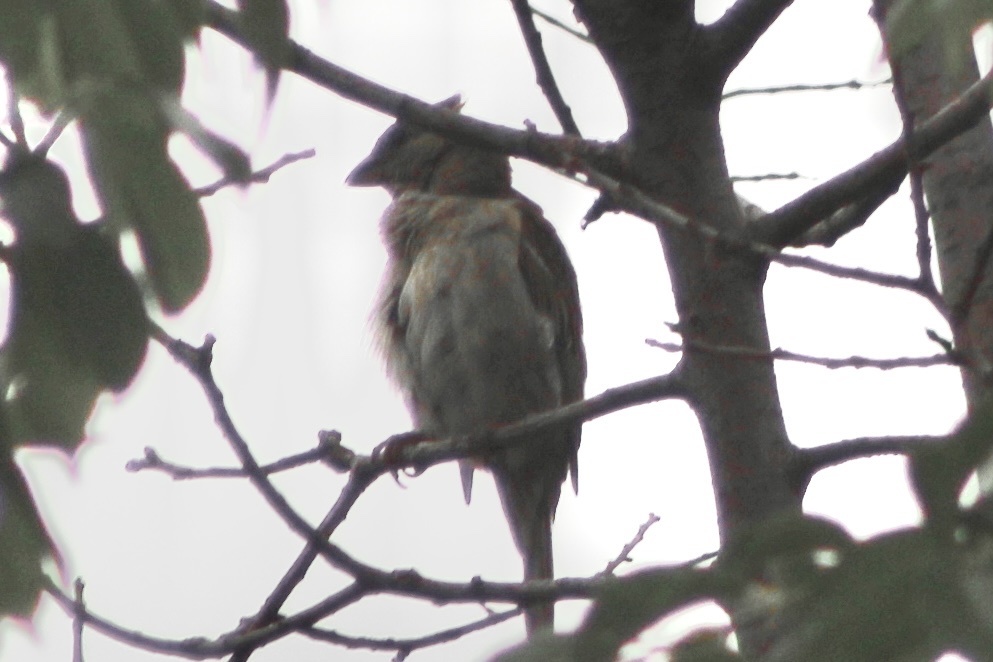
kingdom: Animalia
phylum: Chordata
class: Aves
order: Passeriformes
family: Passeridae
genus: Passer
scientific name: Passer domesticus
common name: House sparrow
